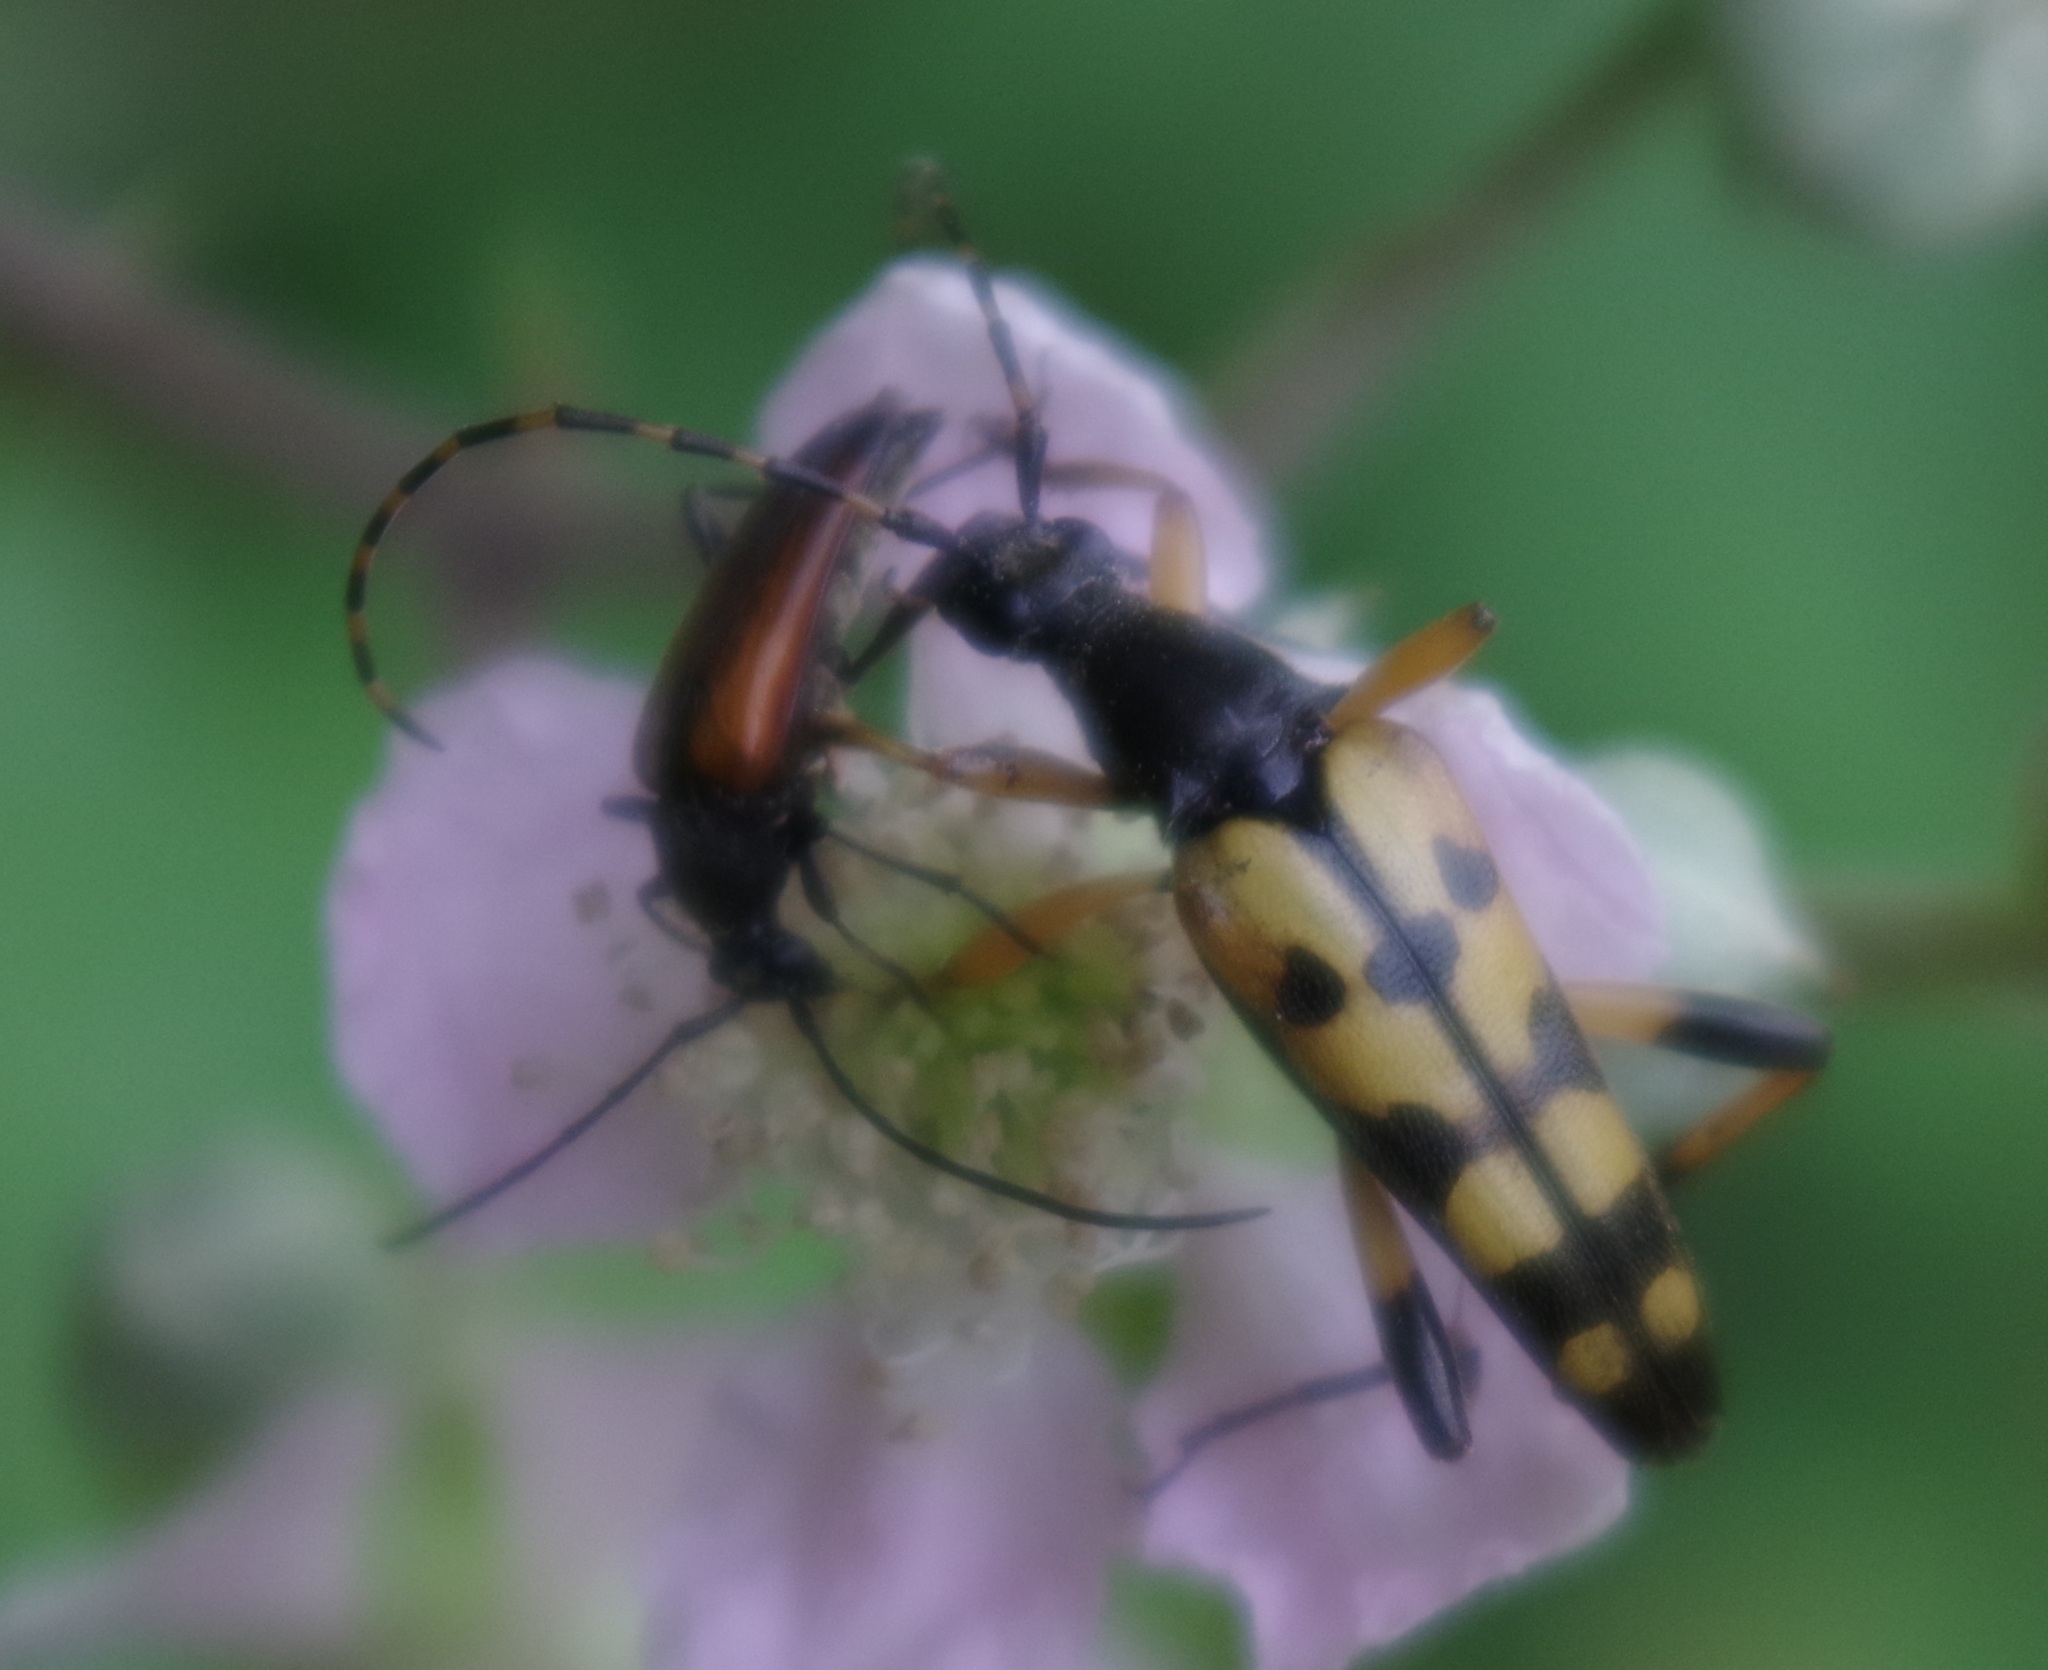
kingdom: Animalia
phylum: Arthropoda
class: Insecta
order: Coleoptera
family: Cerambycidae
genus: Rutpela
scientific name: Rutpela maculata
